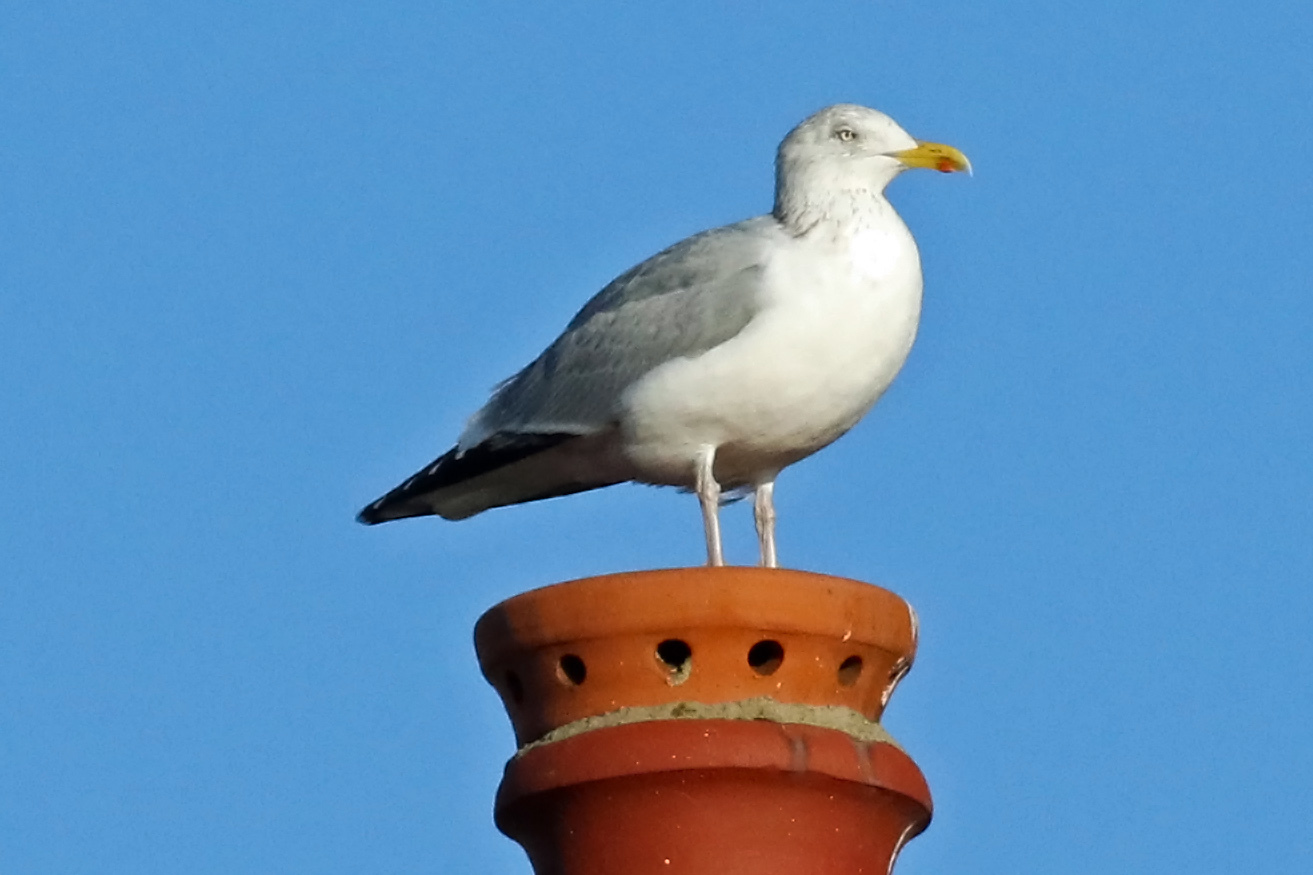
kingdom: Animalia
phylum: Chordata
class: Aves
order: Charadriiformes
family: Laridae
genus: Larus
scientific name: Larus argentatus
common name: Herring gull
